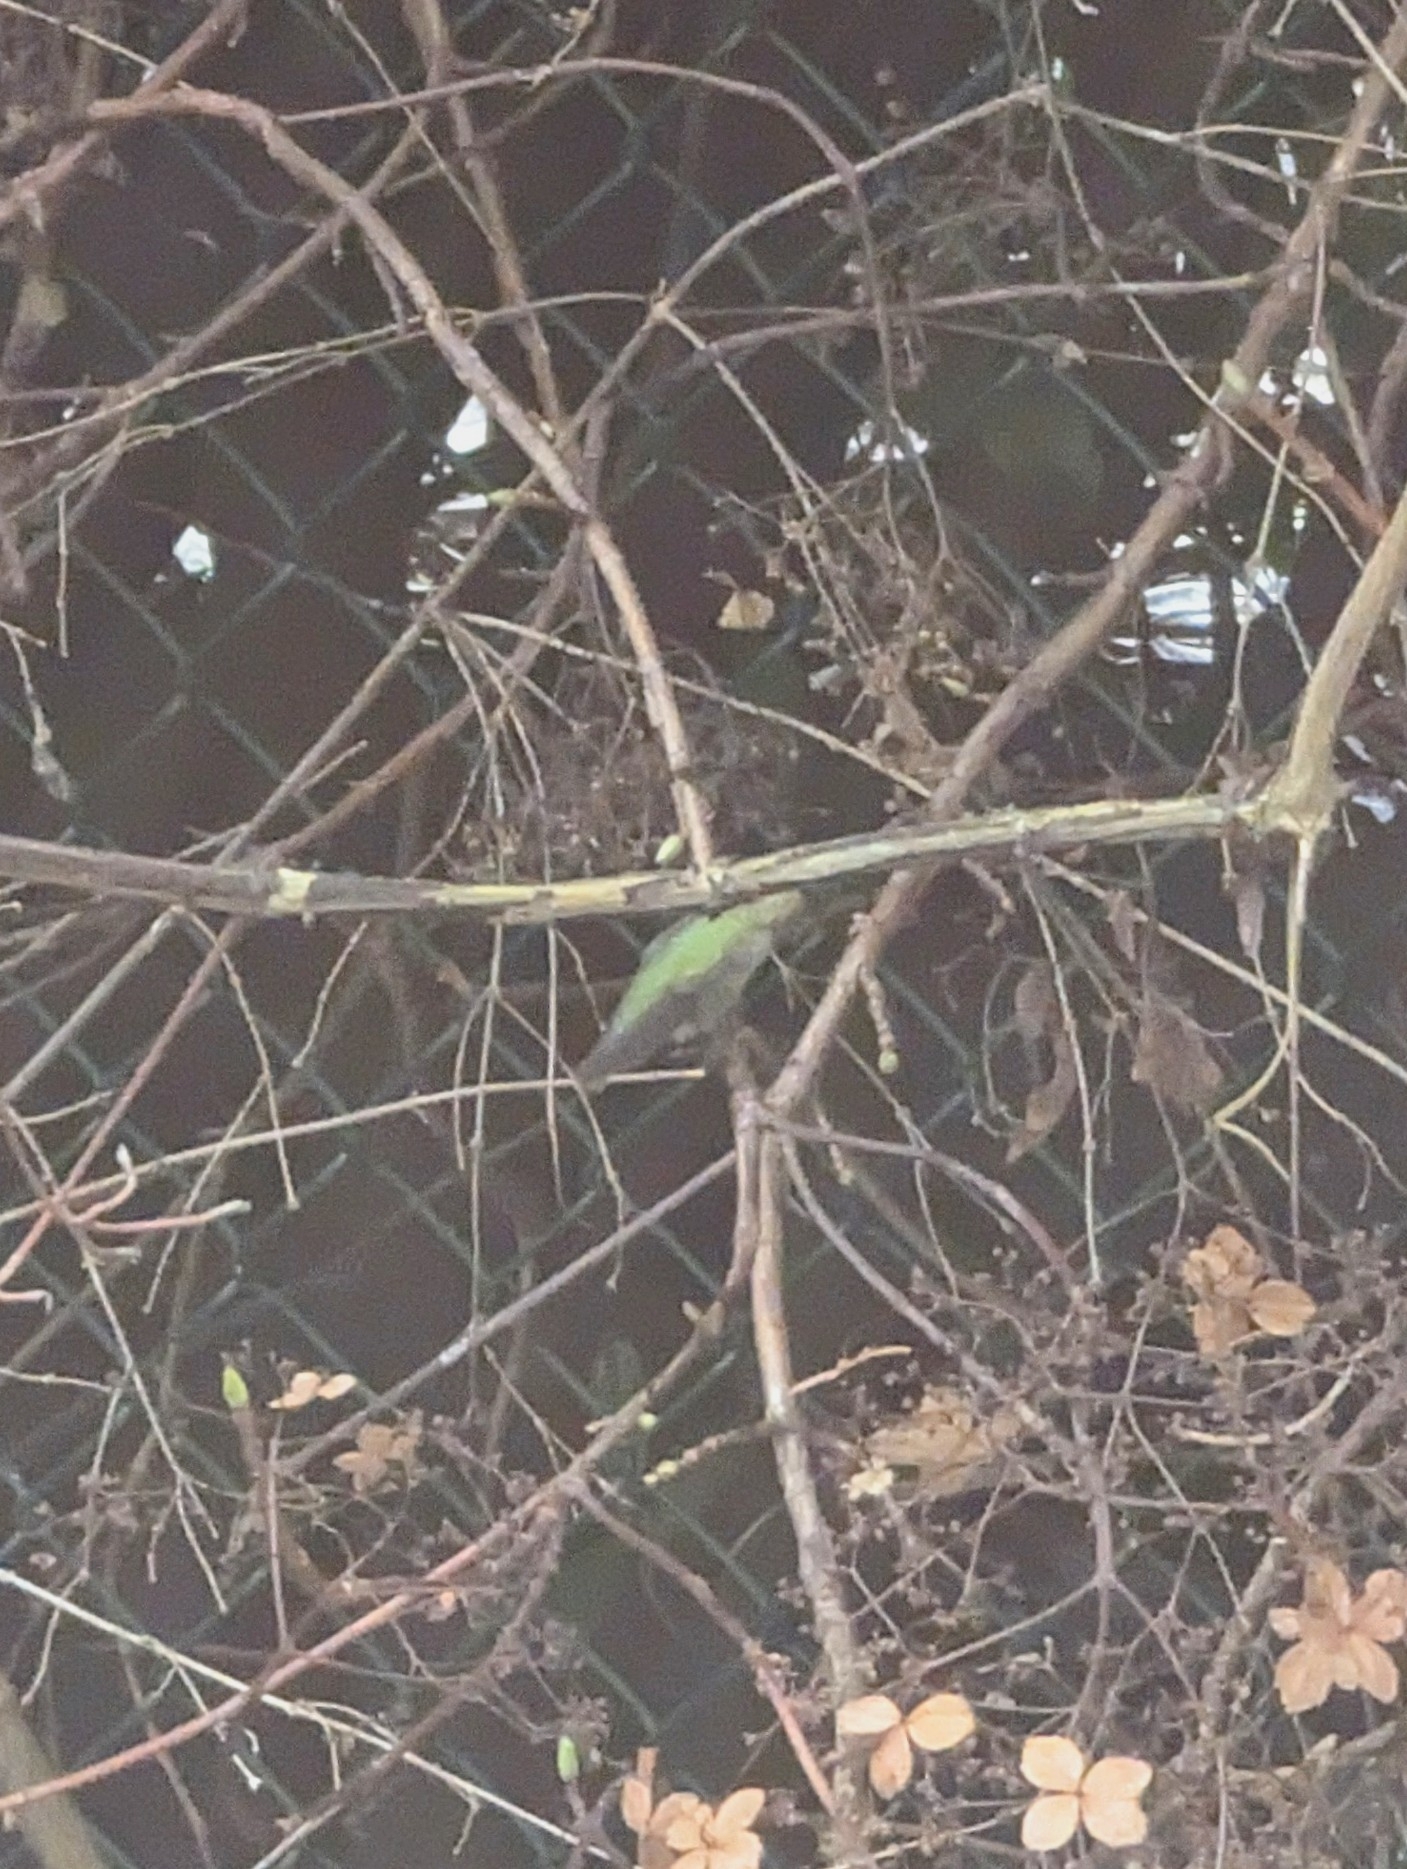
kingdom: Animalia
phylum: Chordata
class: Aves
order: Apodiformes
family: Trochilidae
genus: Calypte
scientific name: Calypte anna
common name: Anna's hummingbird
